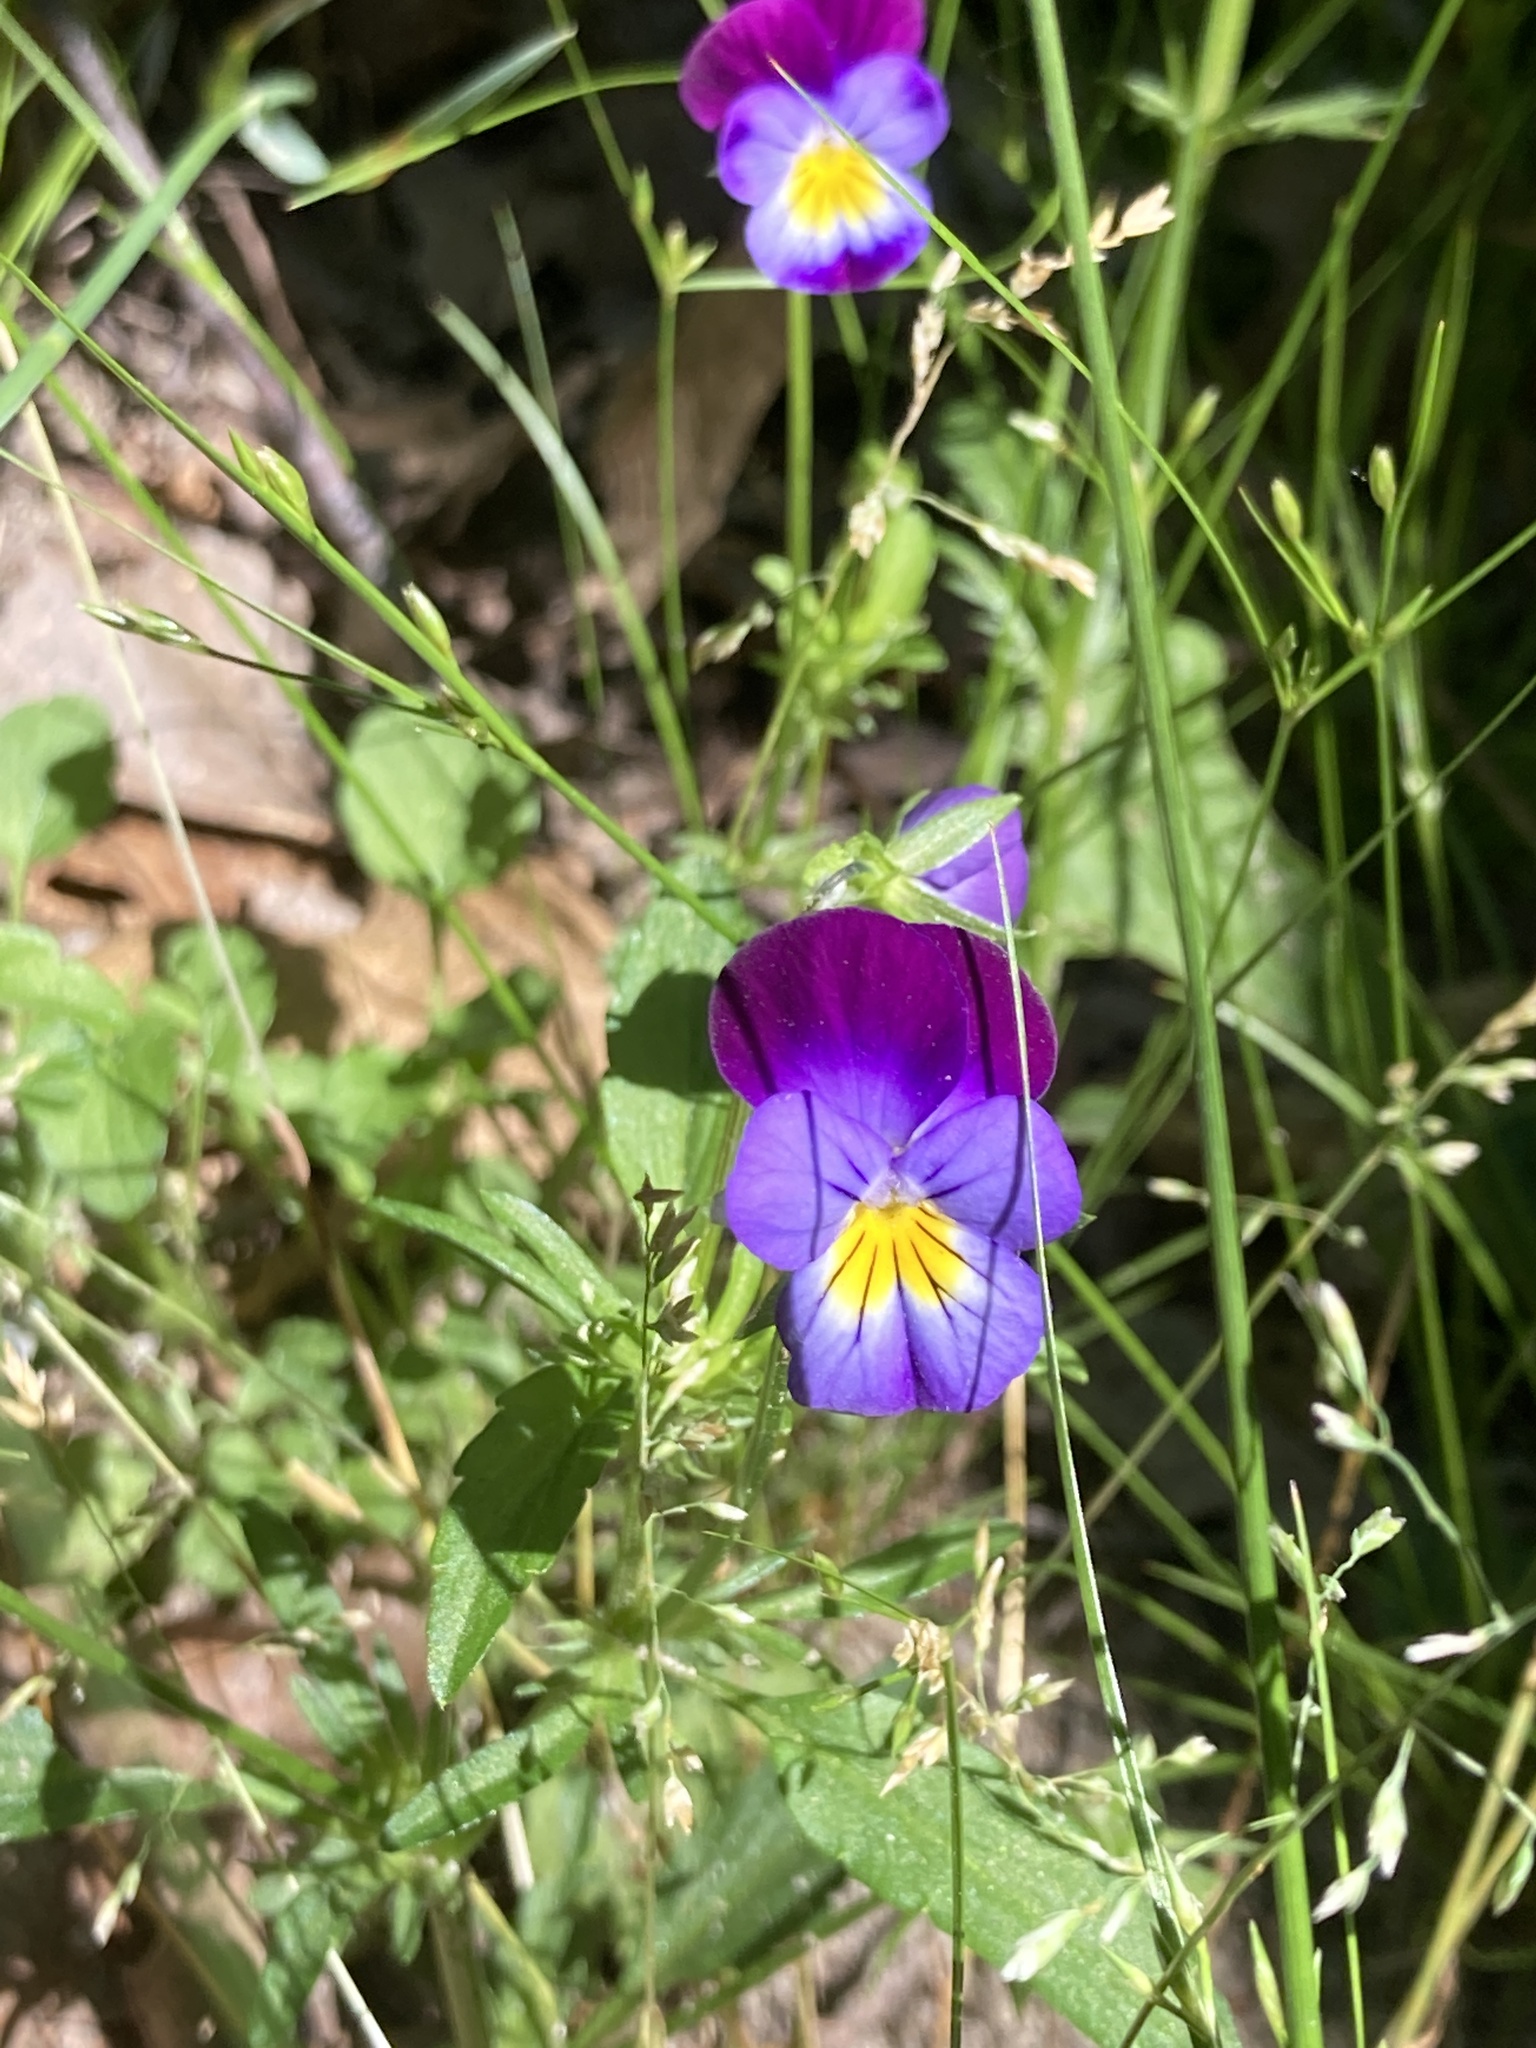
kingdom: Plantae
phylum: Tracheophyta
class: Magnoliopsida
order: Malpighiales
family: Violaceae
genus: Viola
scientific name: Viola tricolor
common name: Pansy
